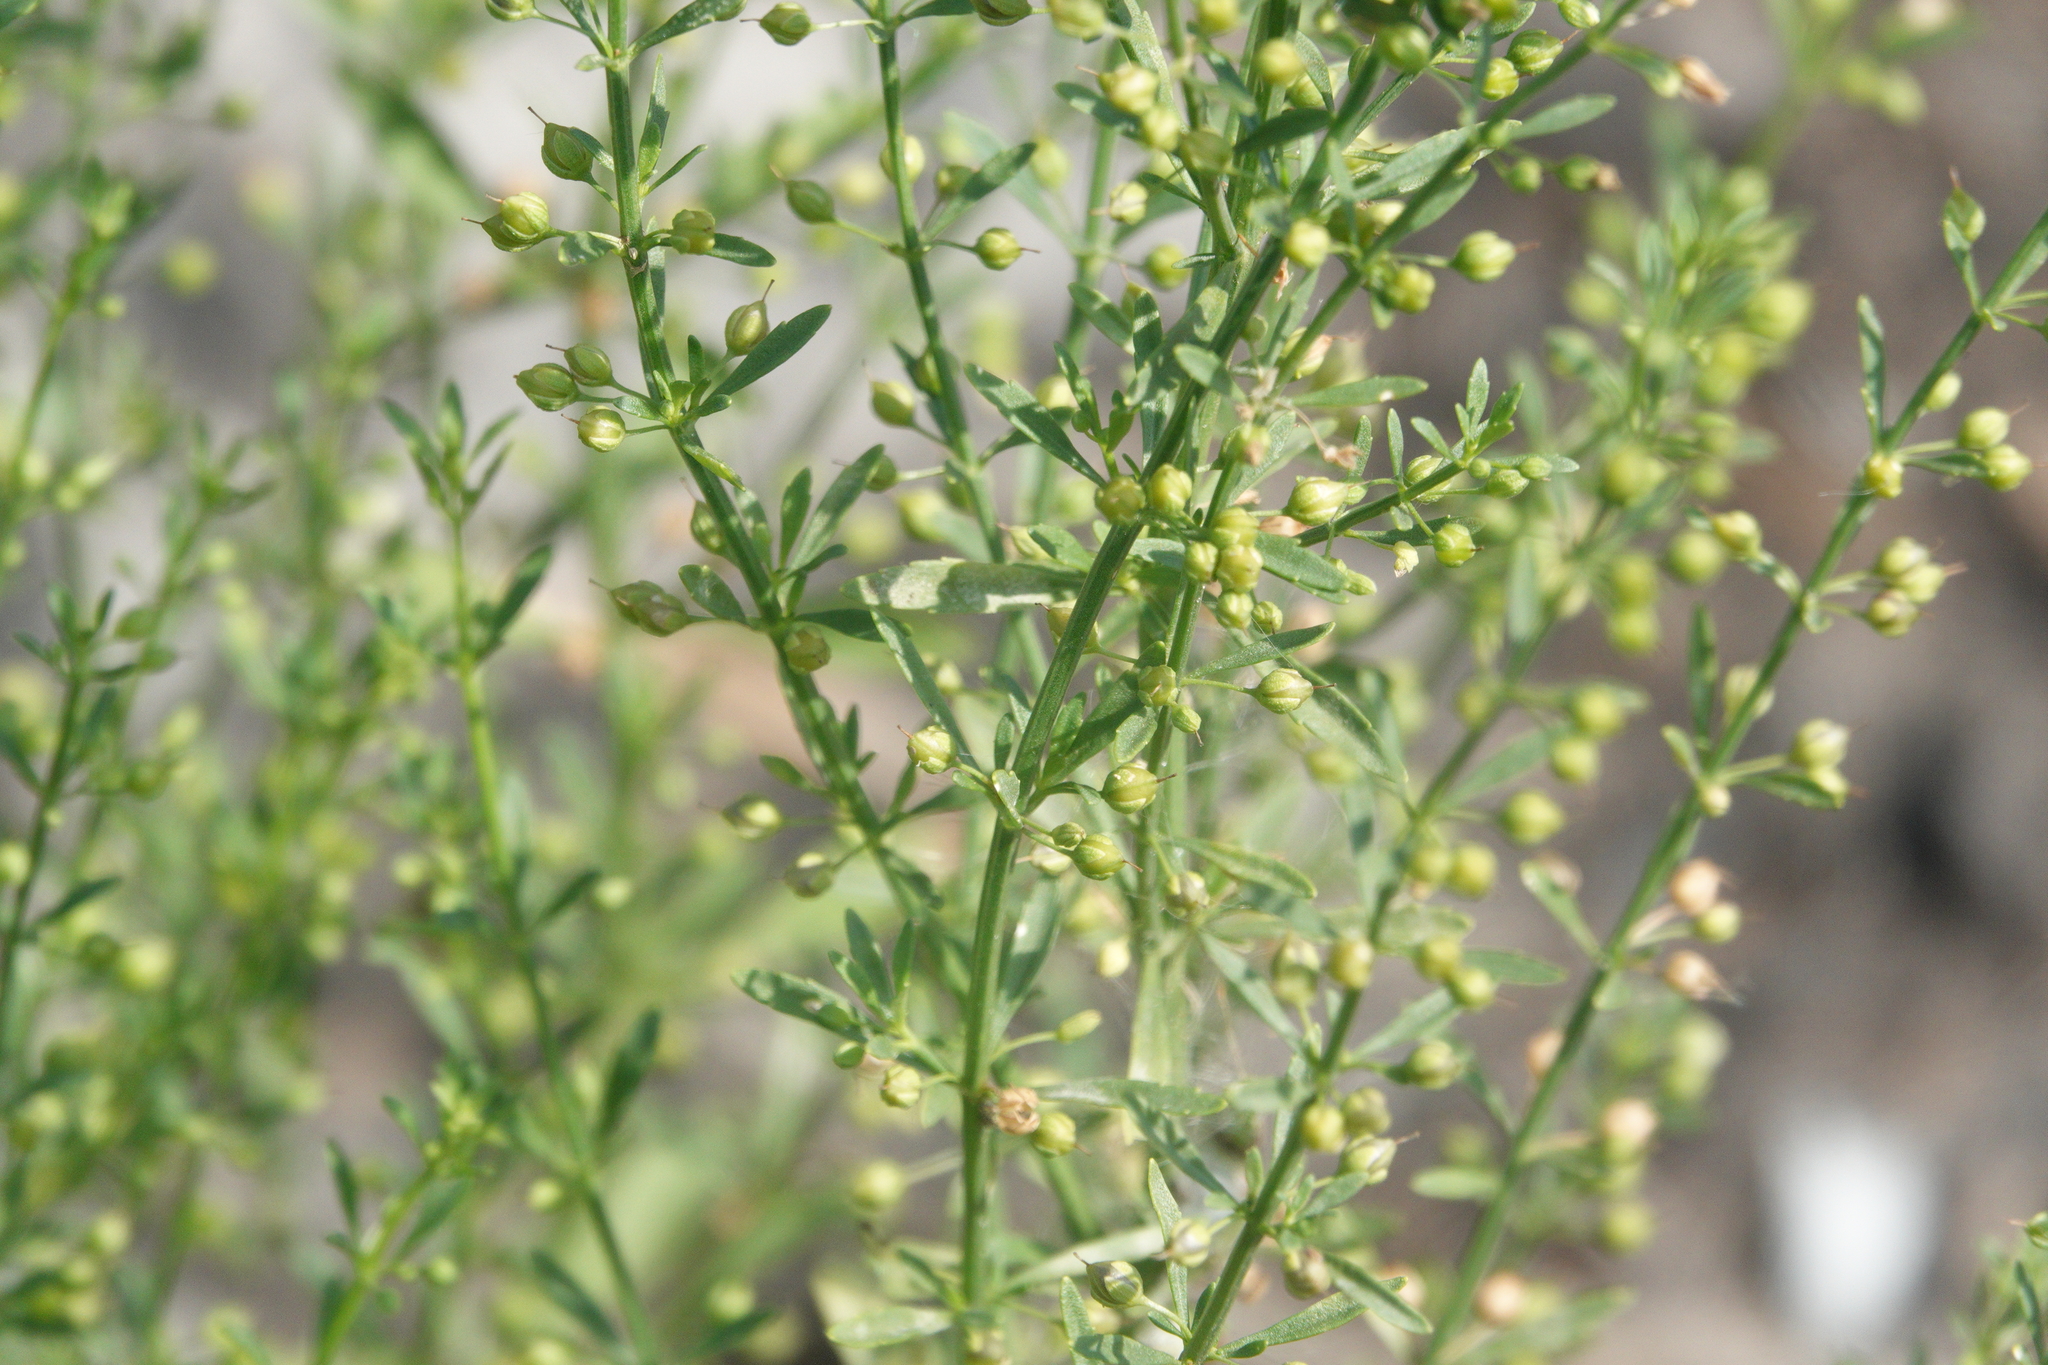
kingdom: Plantae
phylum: Tracheophyta
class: Magnoliopsida
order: Lamiales
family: Plantaginaceae
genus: Scoparia
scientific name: Scoparia dulcis
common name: Scoparia-weed
